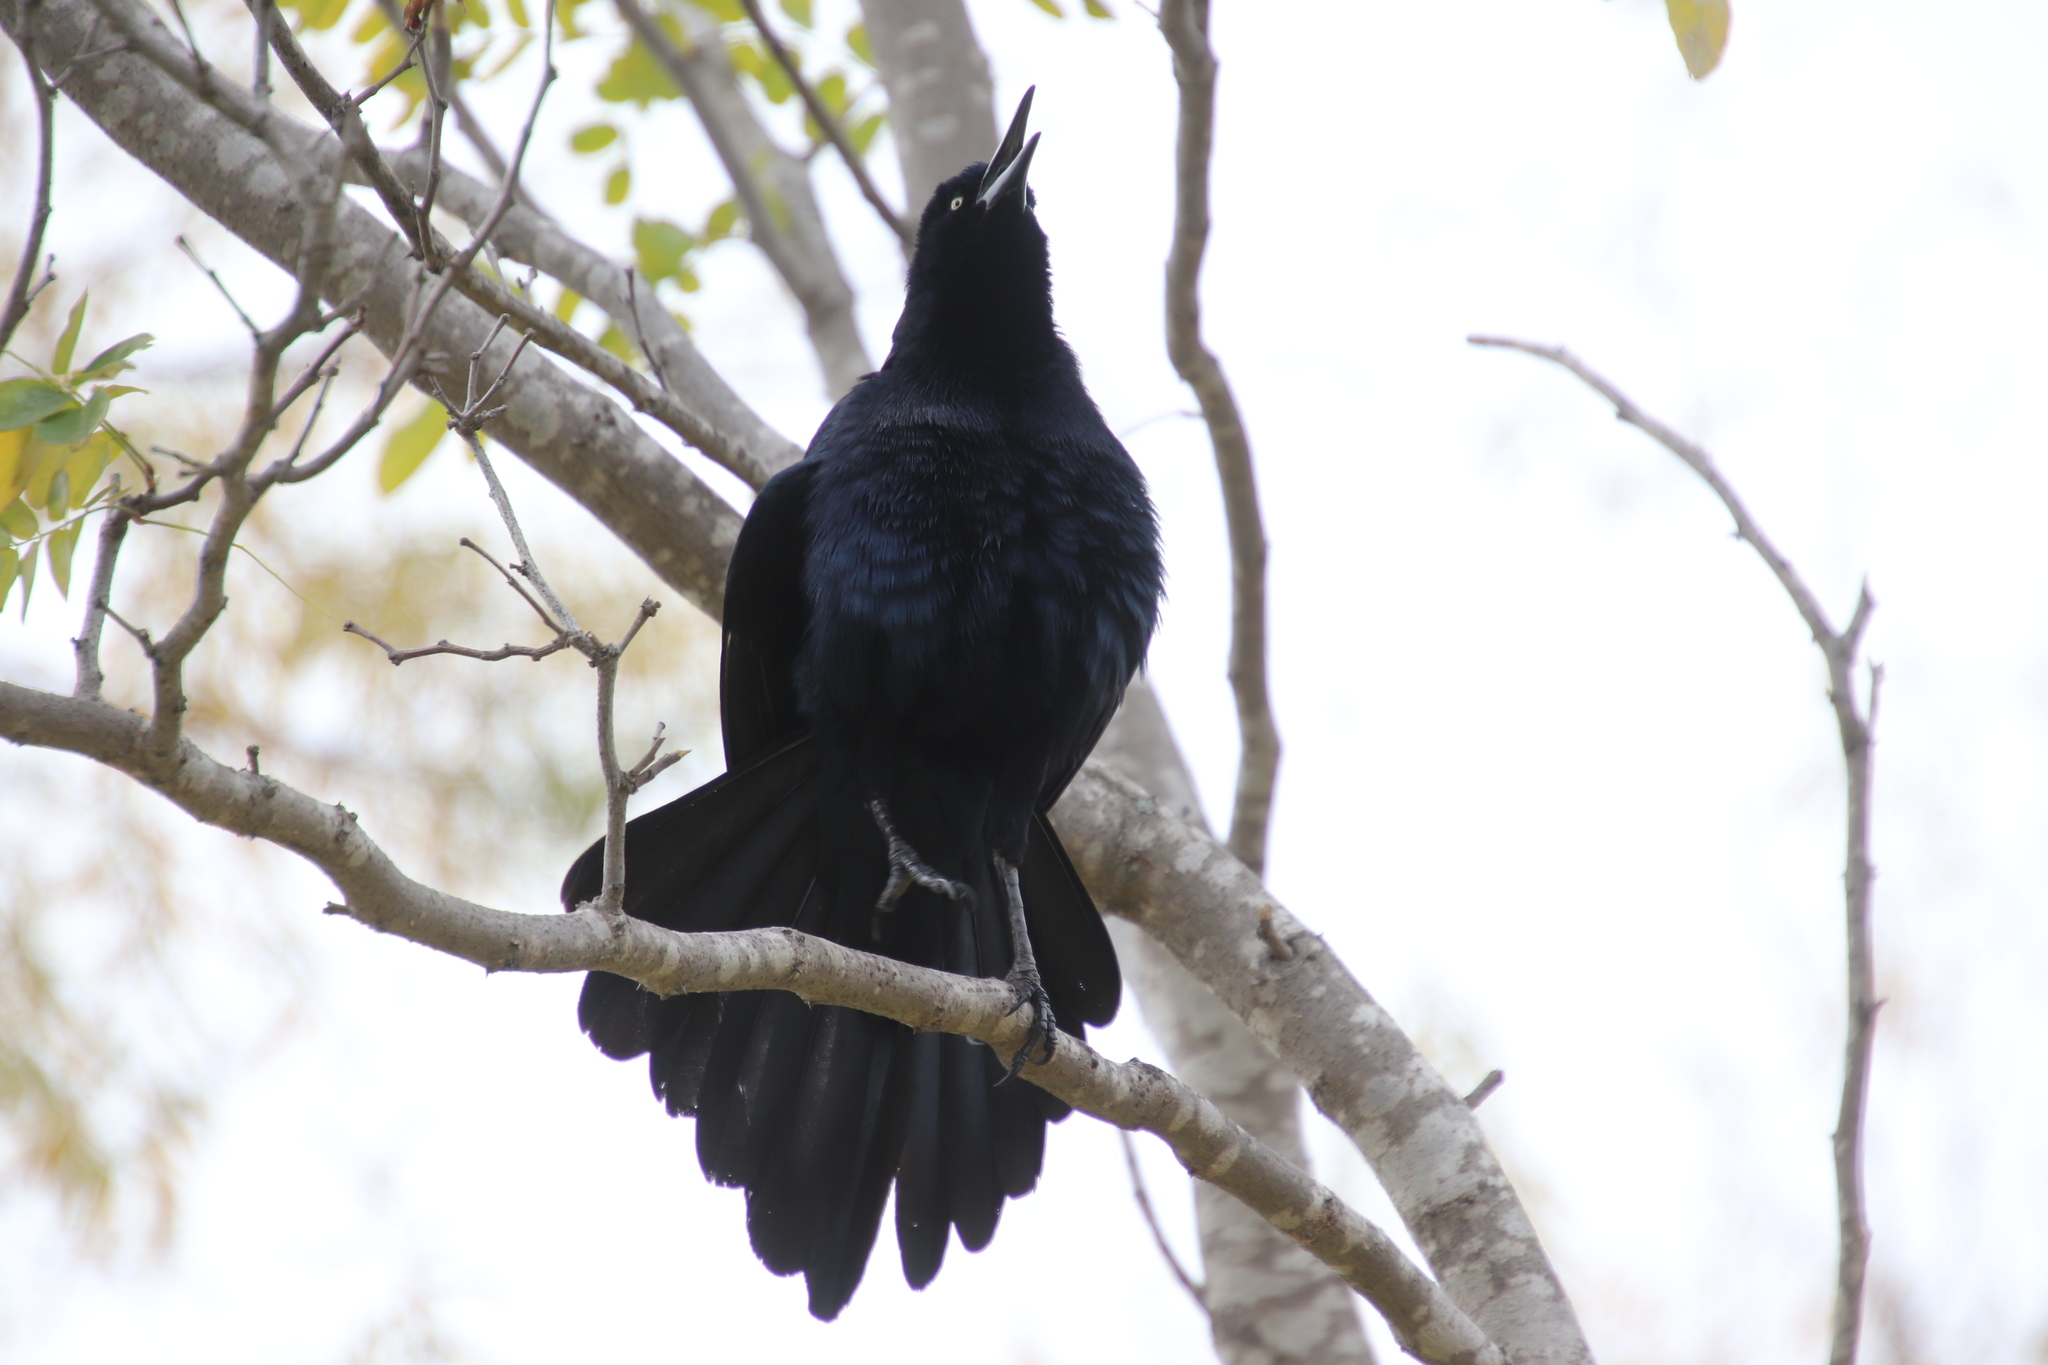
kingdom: Animalia
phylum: Chordata
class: Aves
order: Passeriformes
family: Icteridae
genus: Quiscalus
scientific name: Quiscalus mexicanus
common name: Great-tailed grackle
